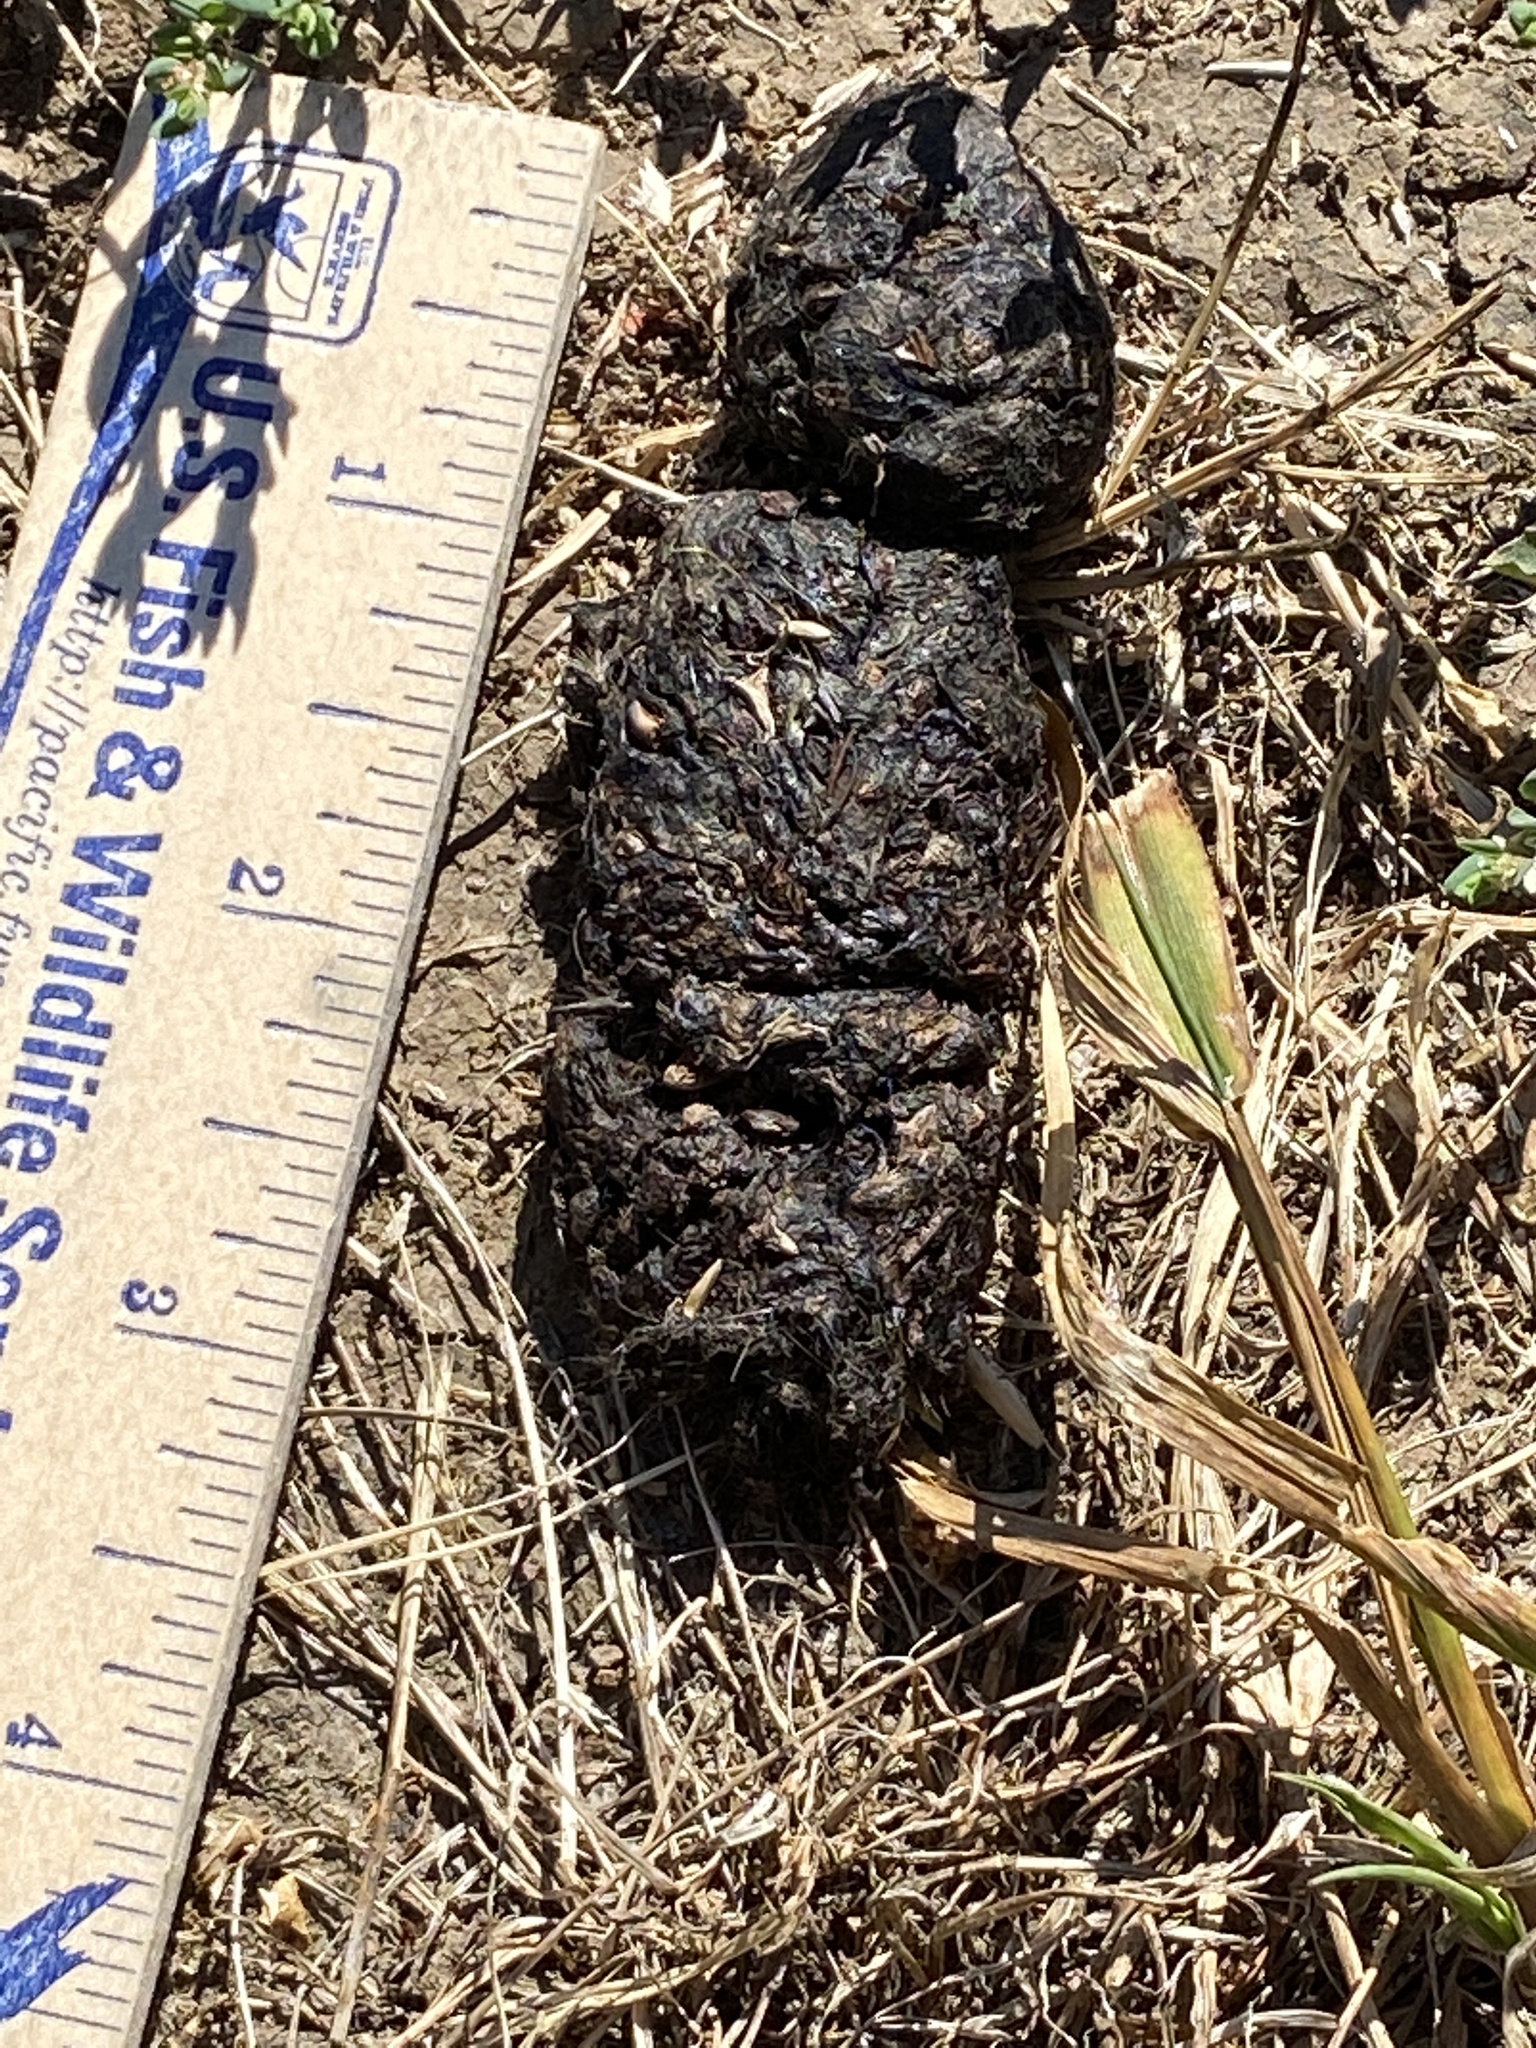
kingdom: Animalia
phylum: Chordata
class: Mammalia
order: Carnivora
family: Canidae
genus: Canis
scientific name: Canis latrans
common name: Coyote
